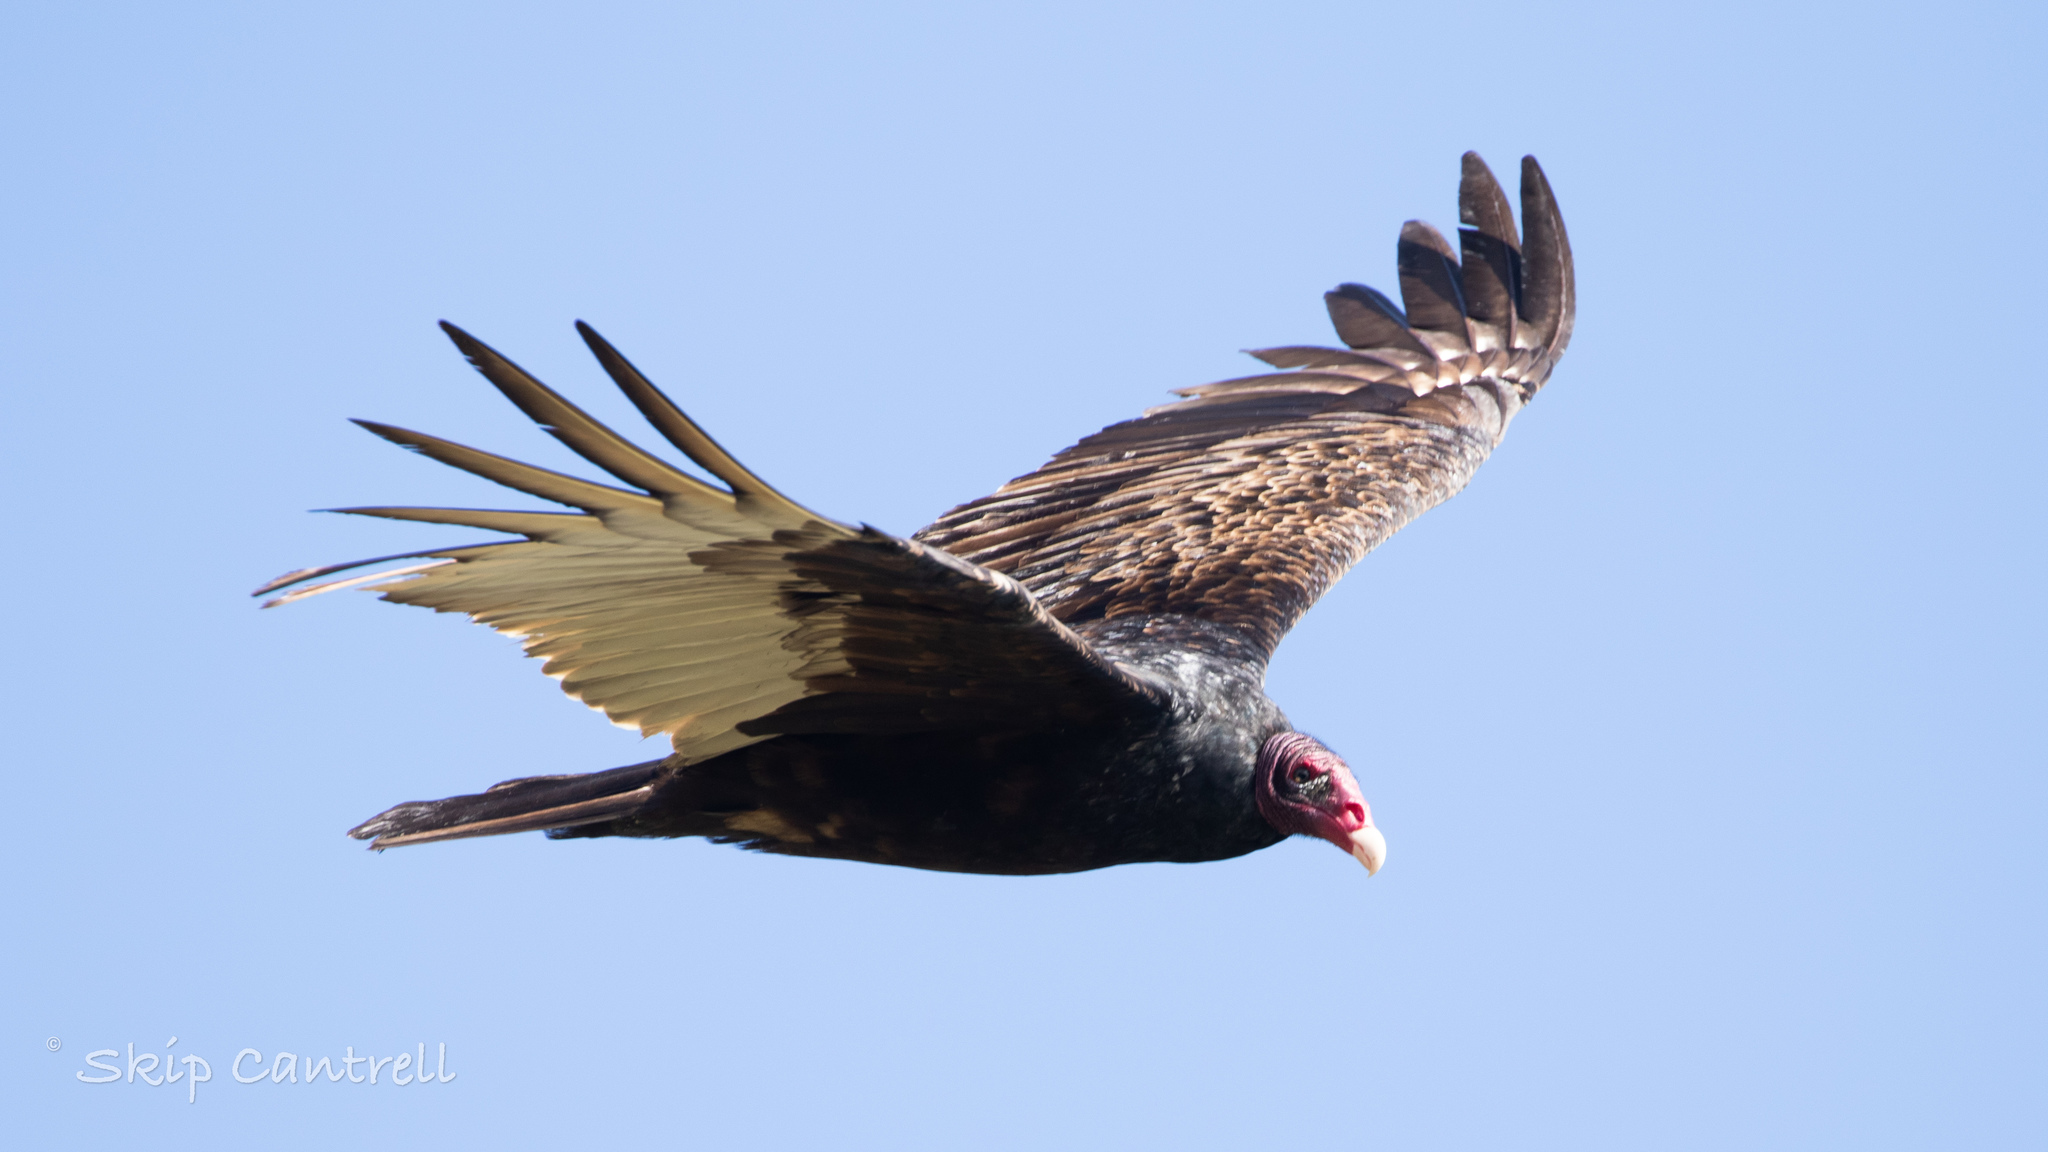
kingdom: Animalia
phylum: Chordata
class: Aves
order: Accipitriformes
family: Cathartidae
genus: Cathartes
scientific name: Cathartes aura
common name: Turkey vulture
